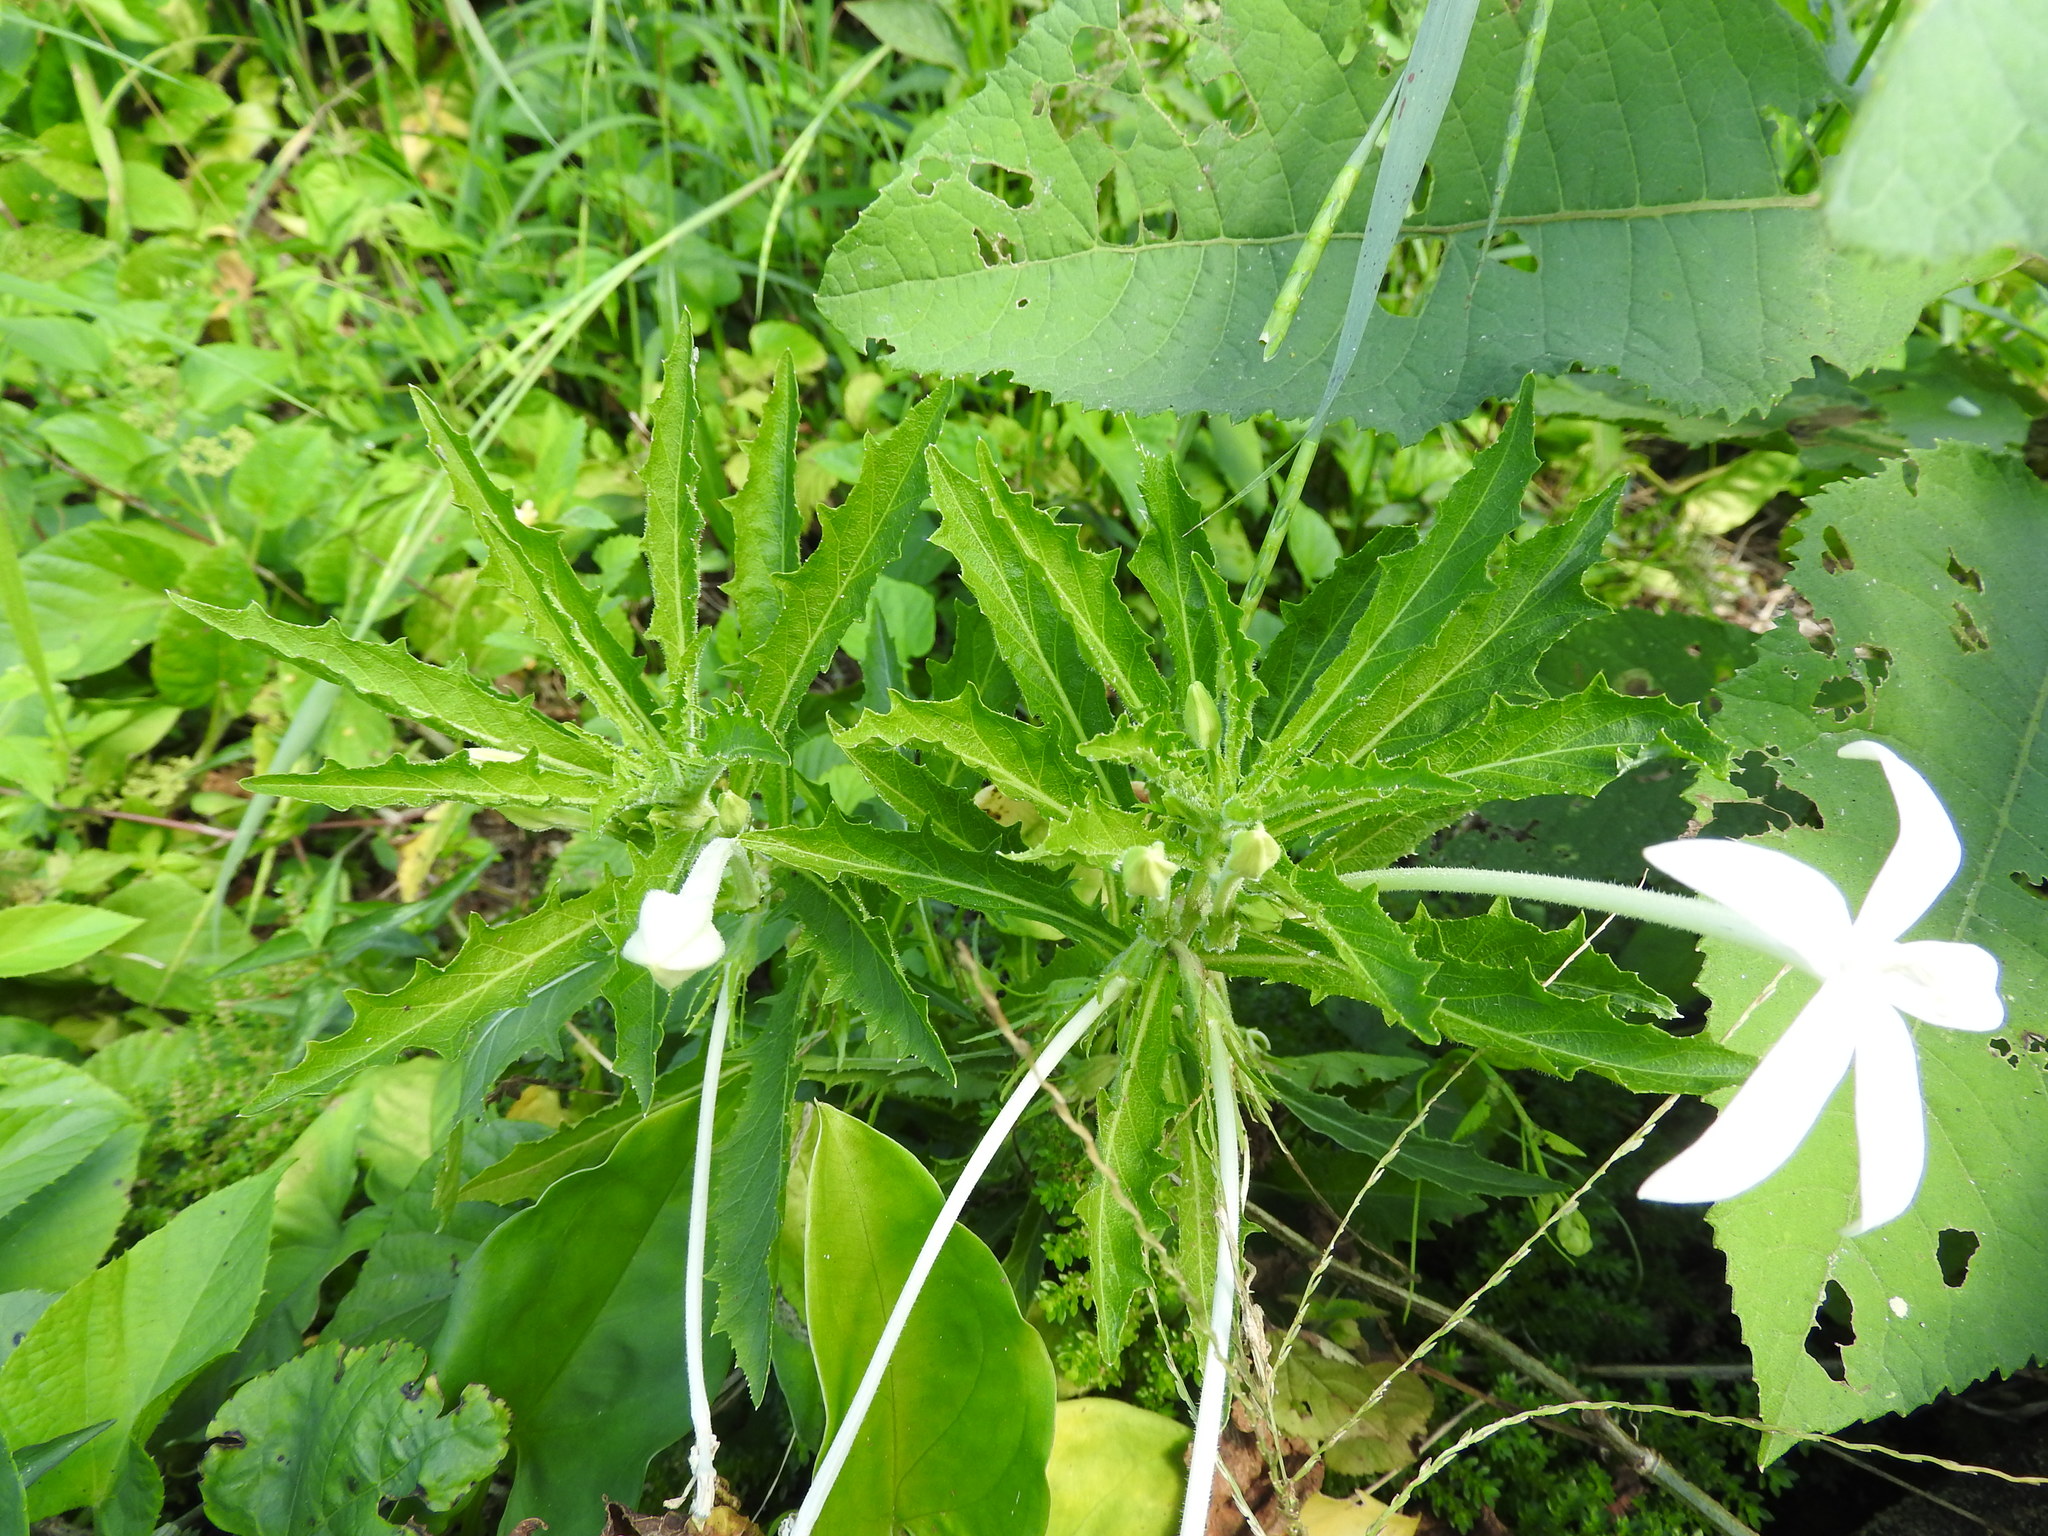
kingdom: Plantae
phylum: Tracheophyta
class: Magnoliopsida
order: Asterales
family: Campanulaceae
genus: Hippobroma
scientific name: Hippobroma longiflora
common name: Madamfate
